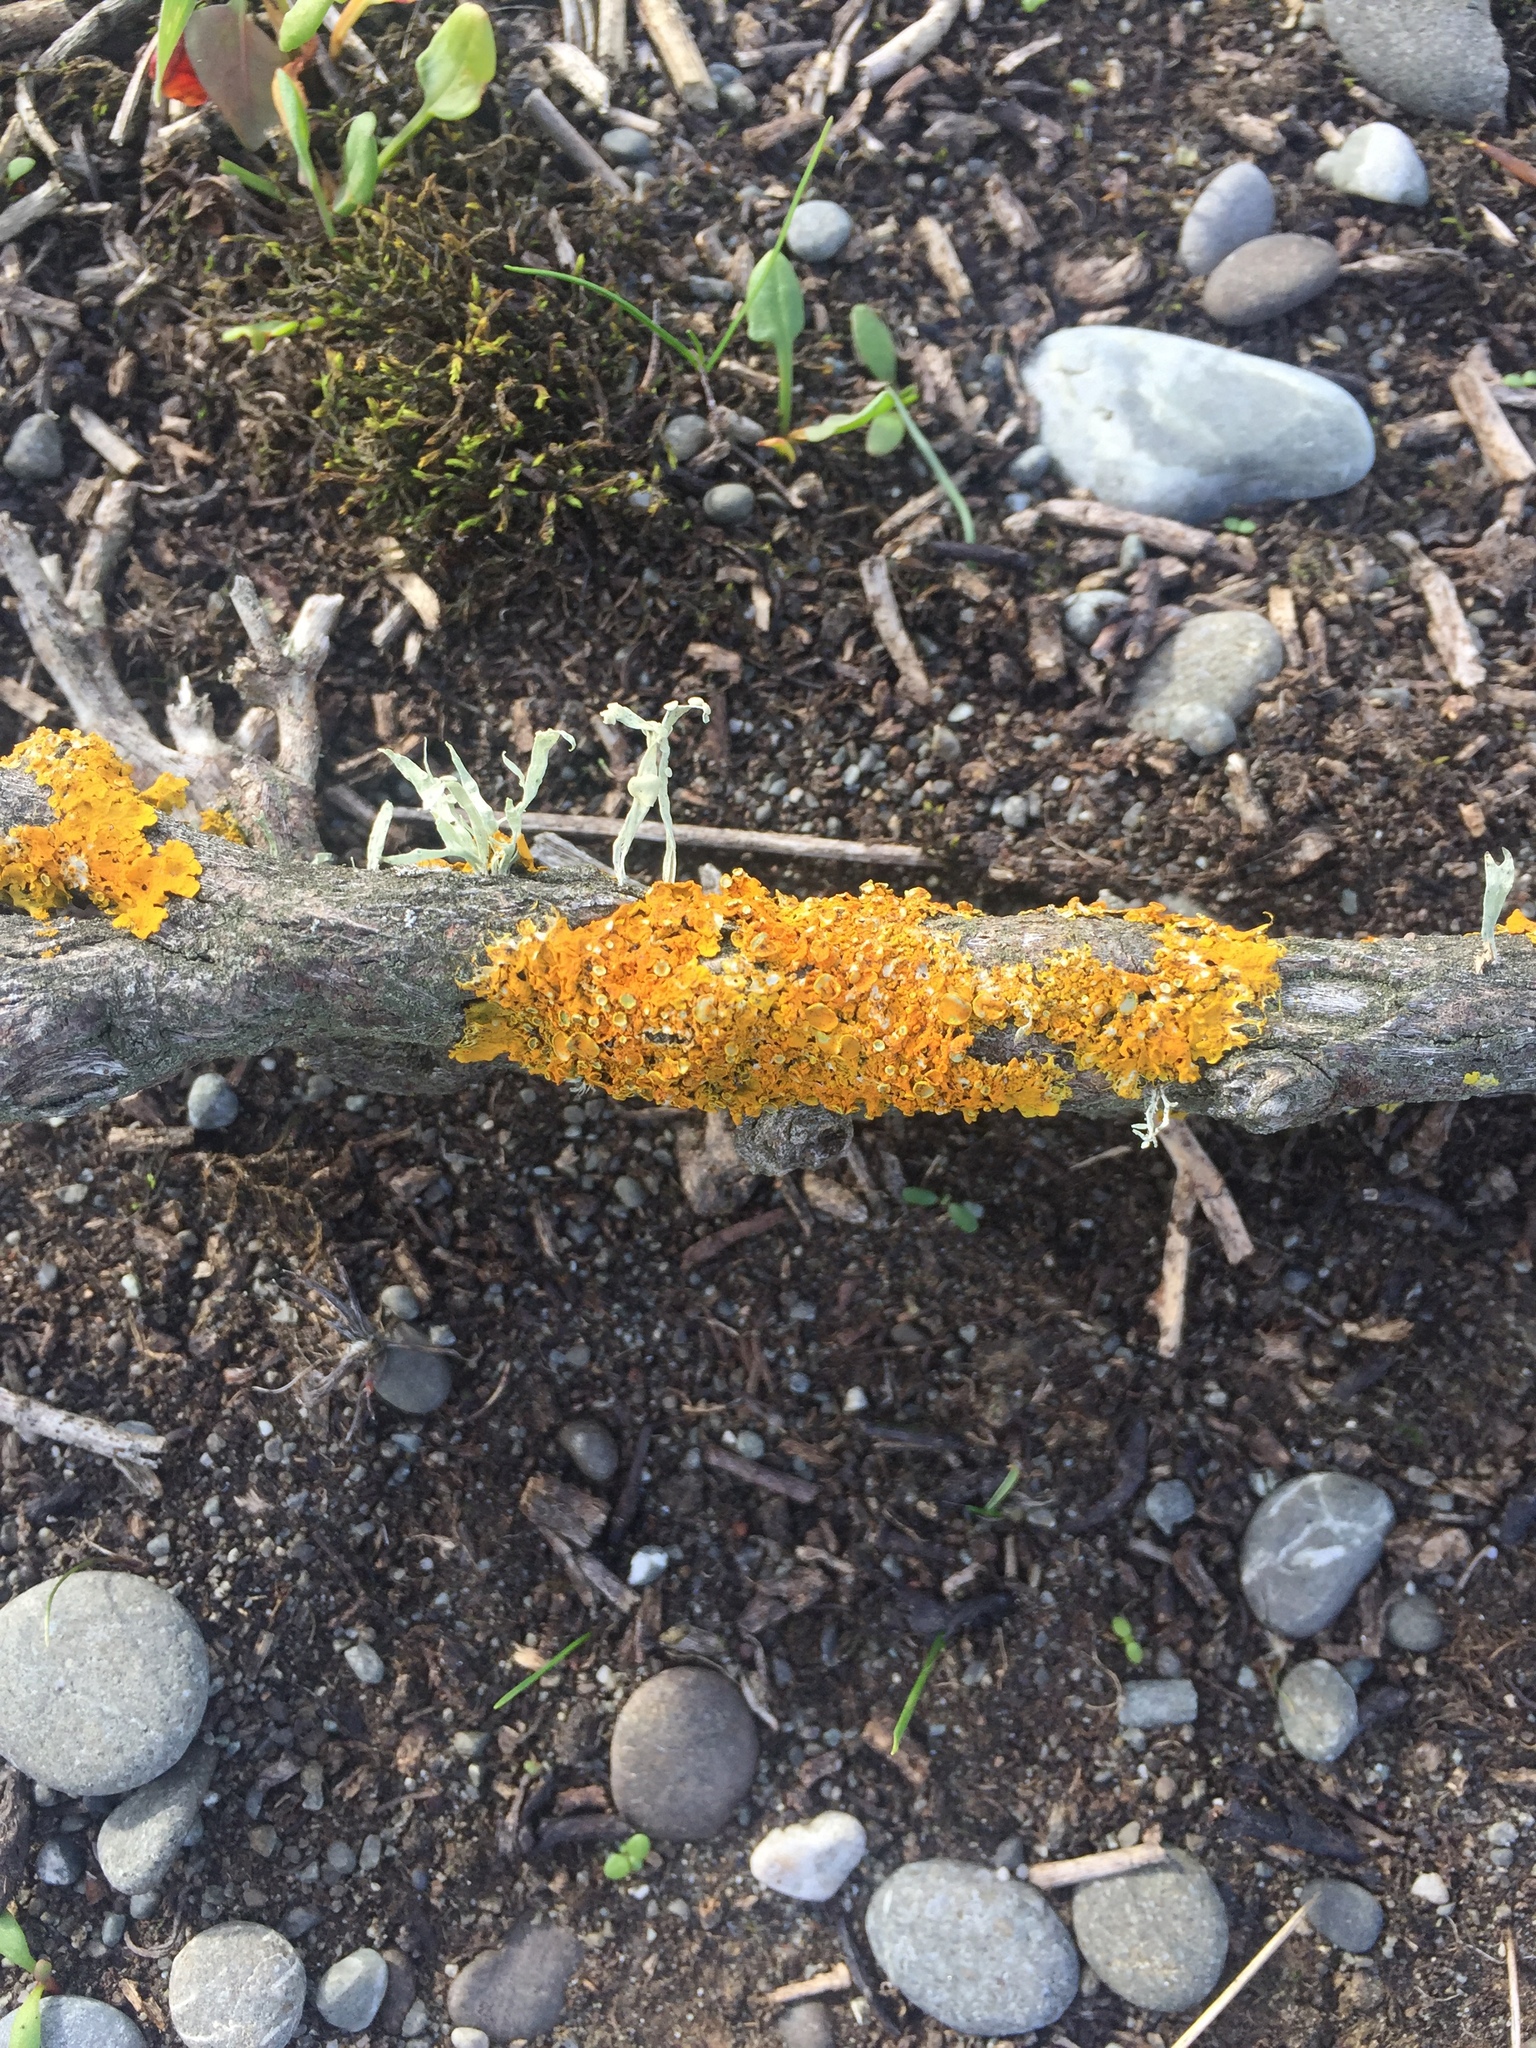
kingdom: Fungi
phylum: Ascomycota
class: Lecanoromycetes
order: Teloschistales
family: Teloschistaceae
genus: Xanthoria
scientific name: Xanthoria parietina
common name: Common orange lichen
